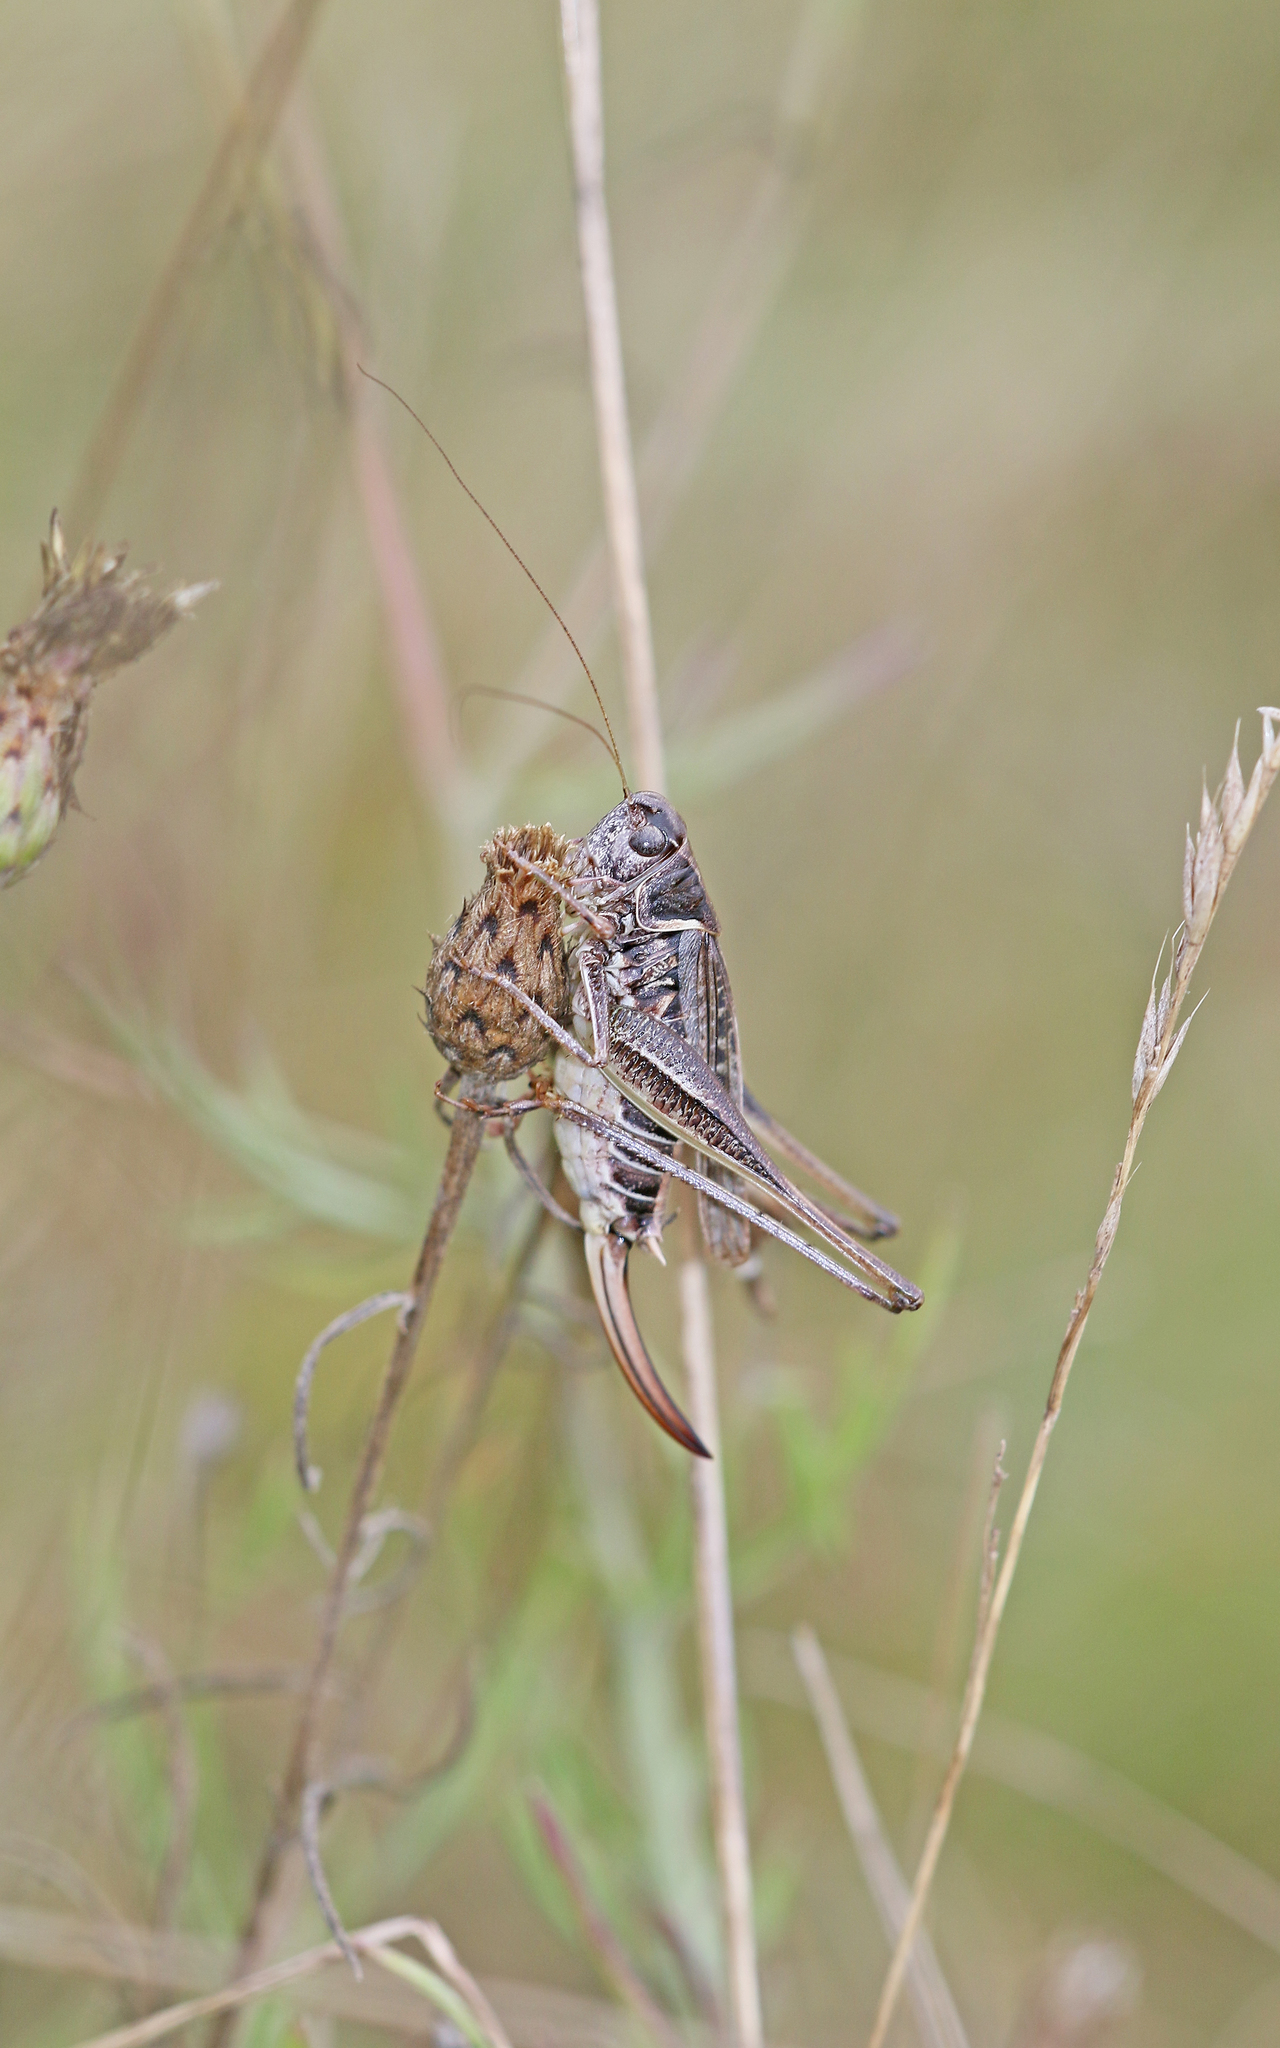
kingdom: Animalia
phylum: Arthropoda
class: Insecta
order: Orthoptera
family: Tettigoniidae
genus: Montana
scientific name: Montana montana
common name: Steppe bush-cricket
